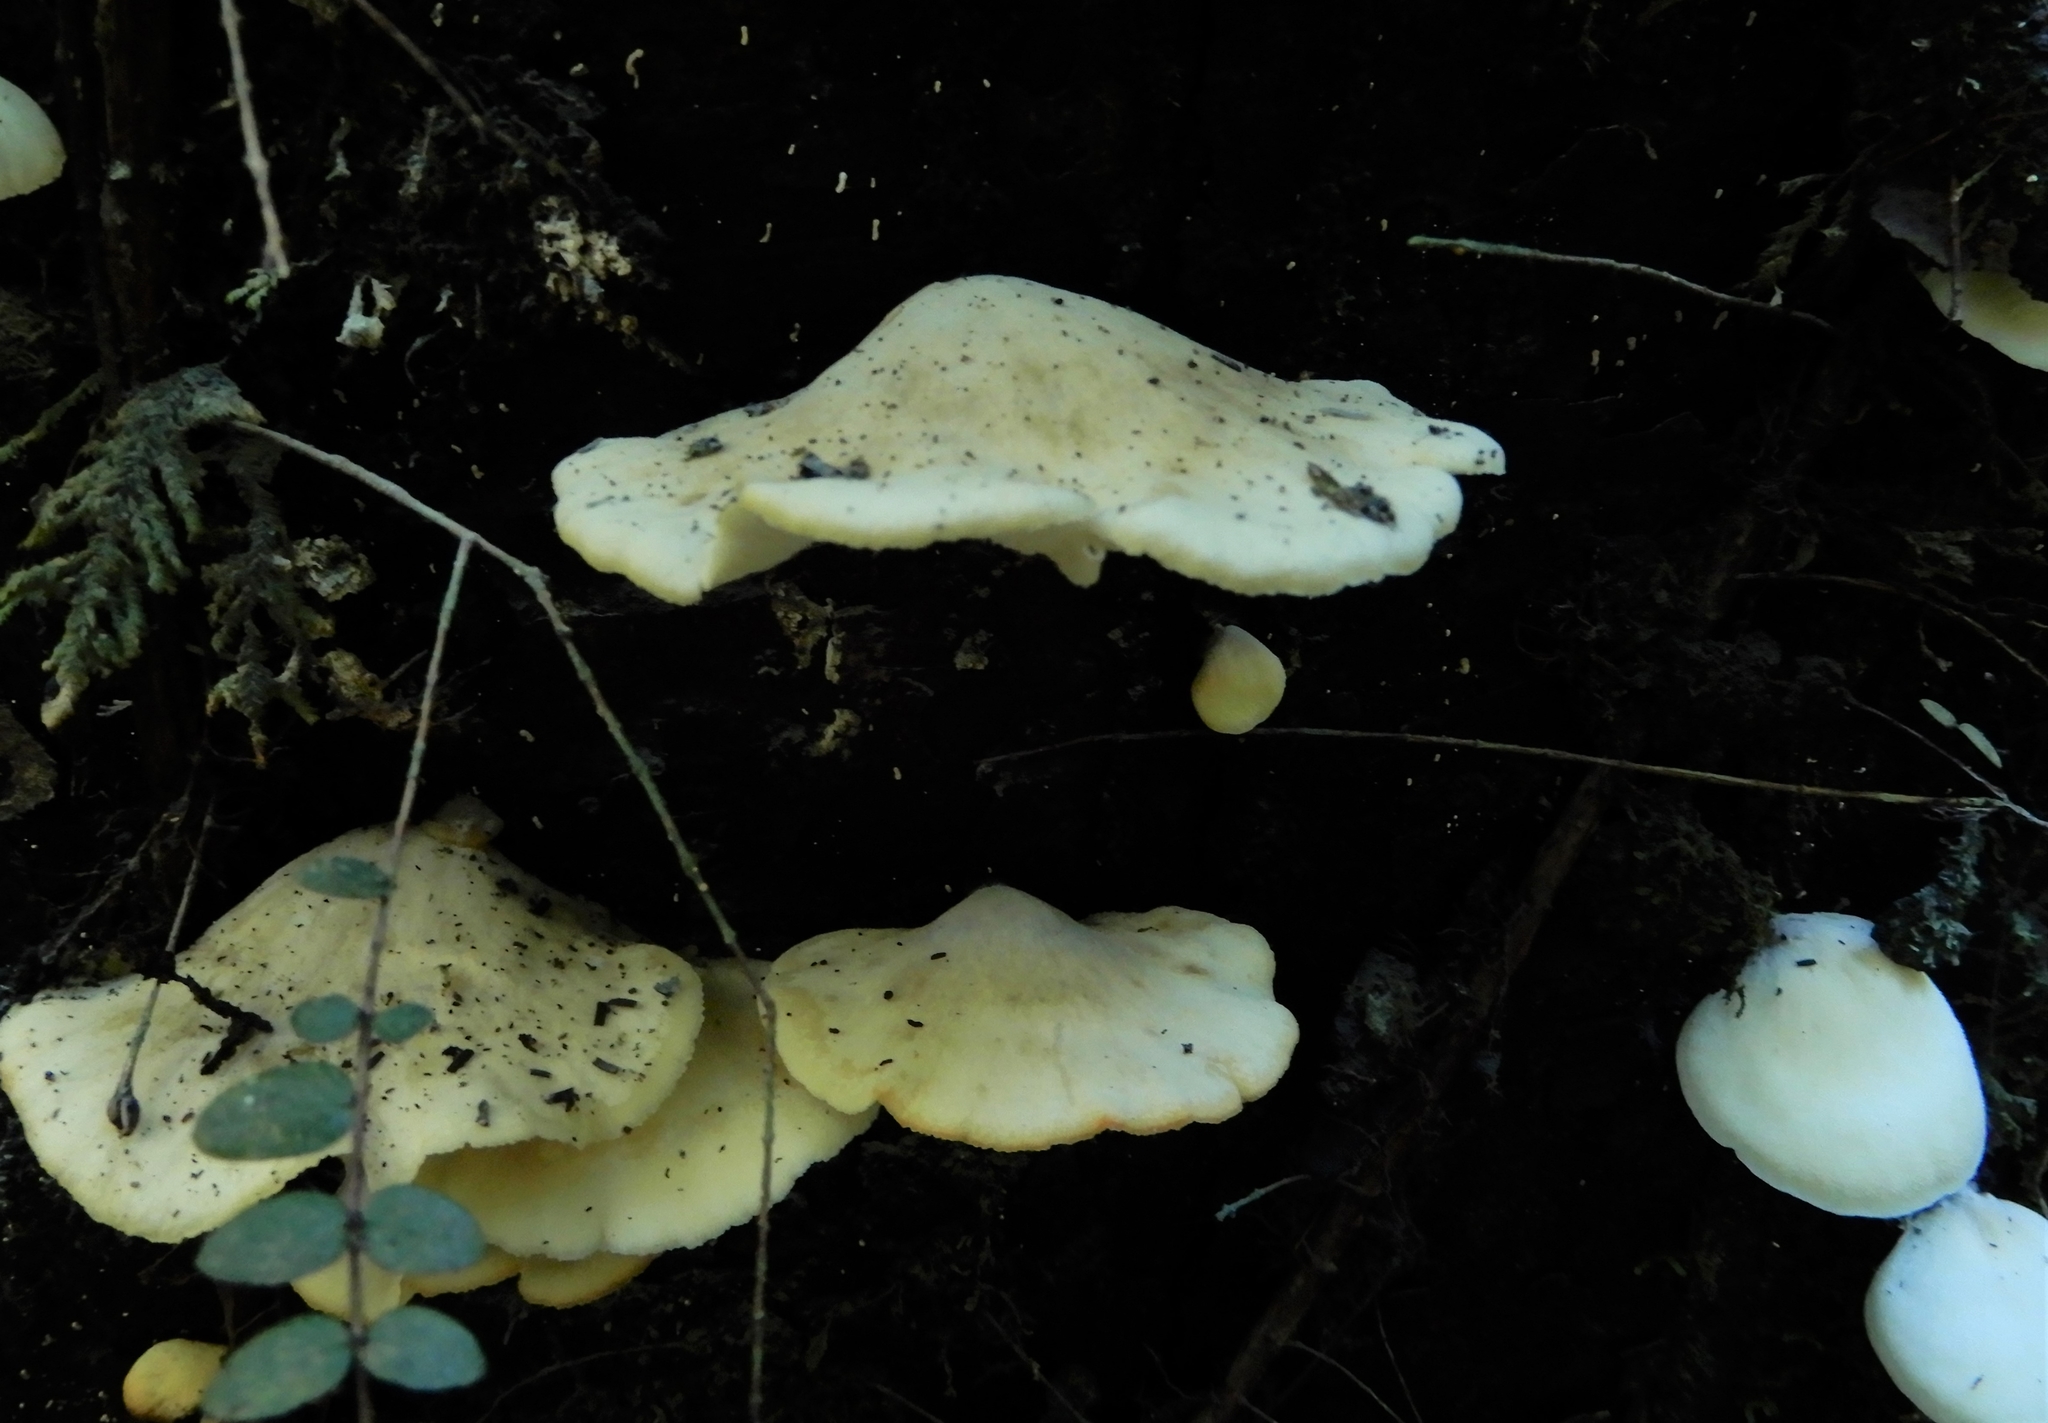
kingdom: Fungi
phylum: Basidiomycota
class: Agaricomycetes
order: Agaricales
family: Tricholomataceae
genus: Conchomyces
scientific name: Conchomyces bursiformis
